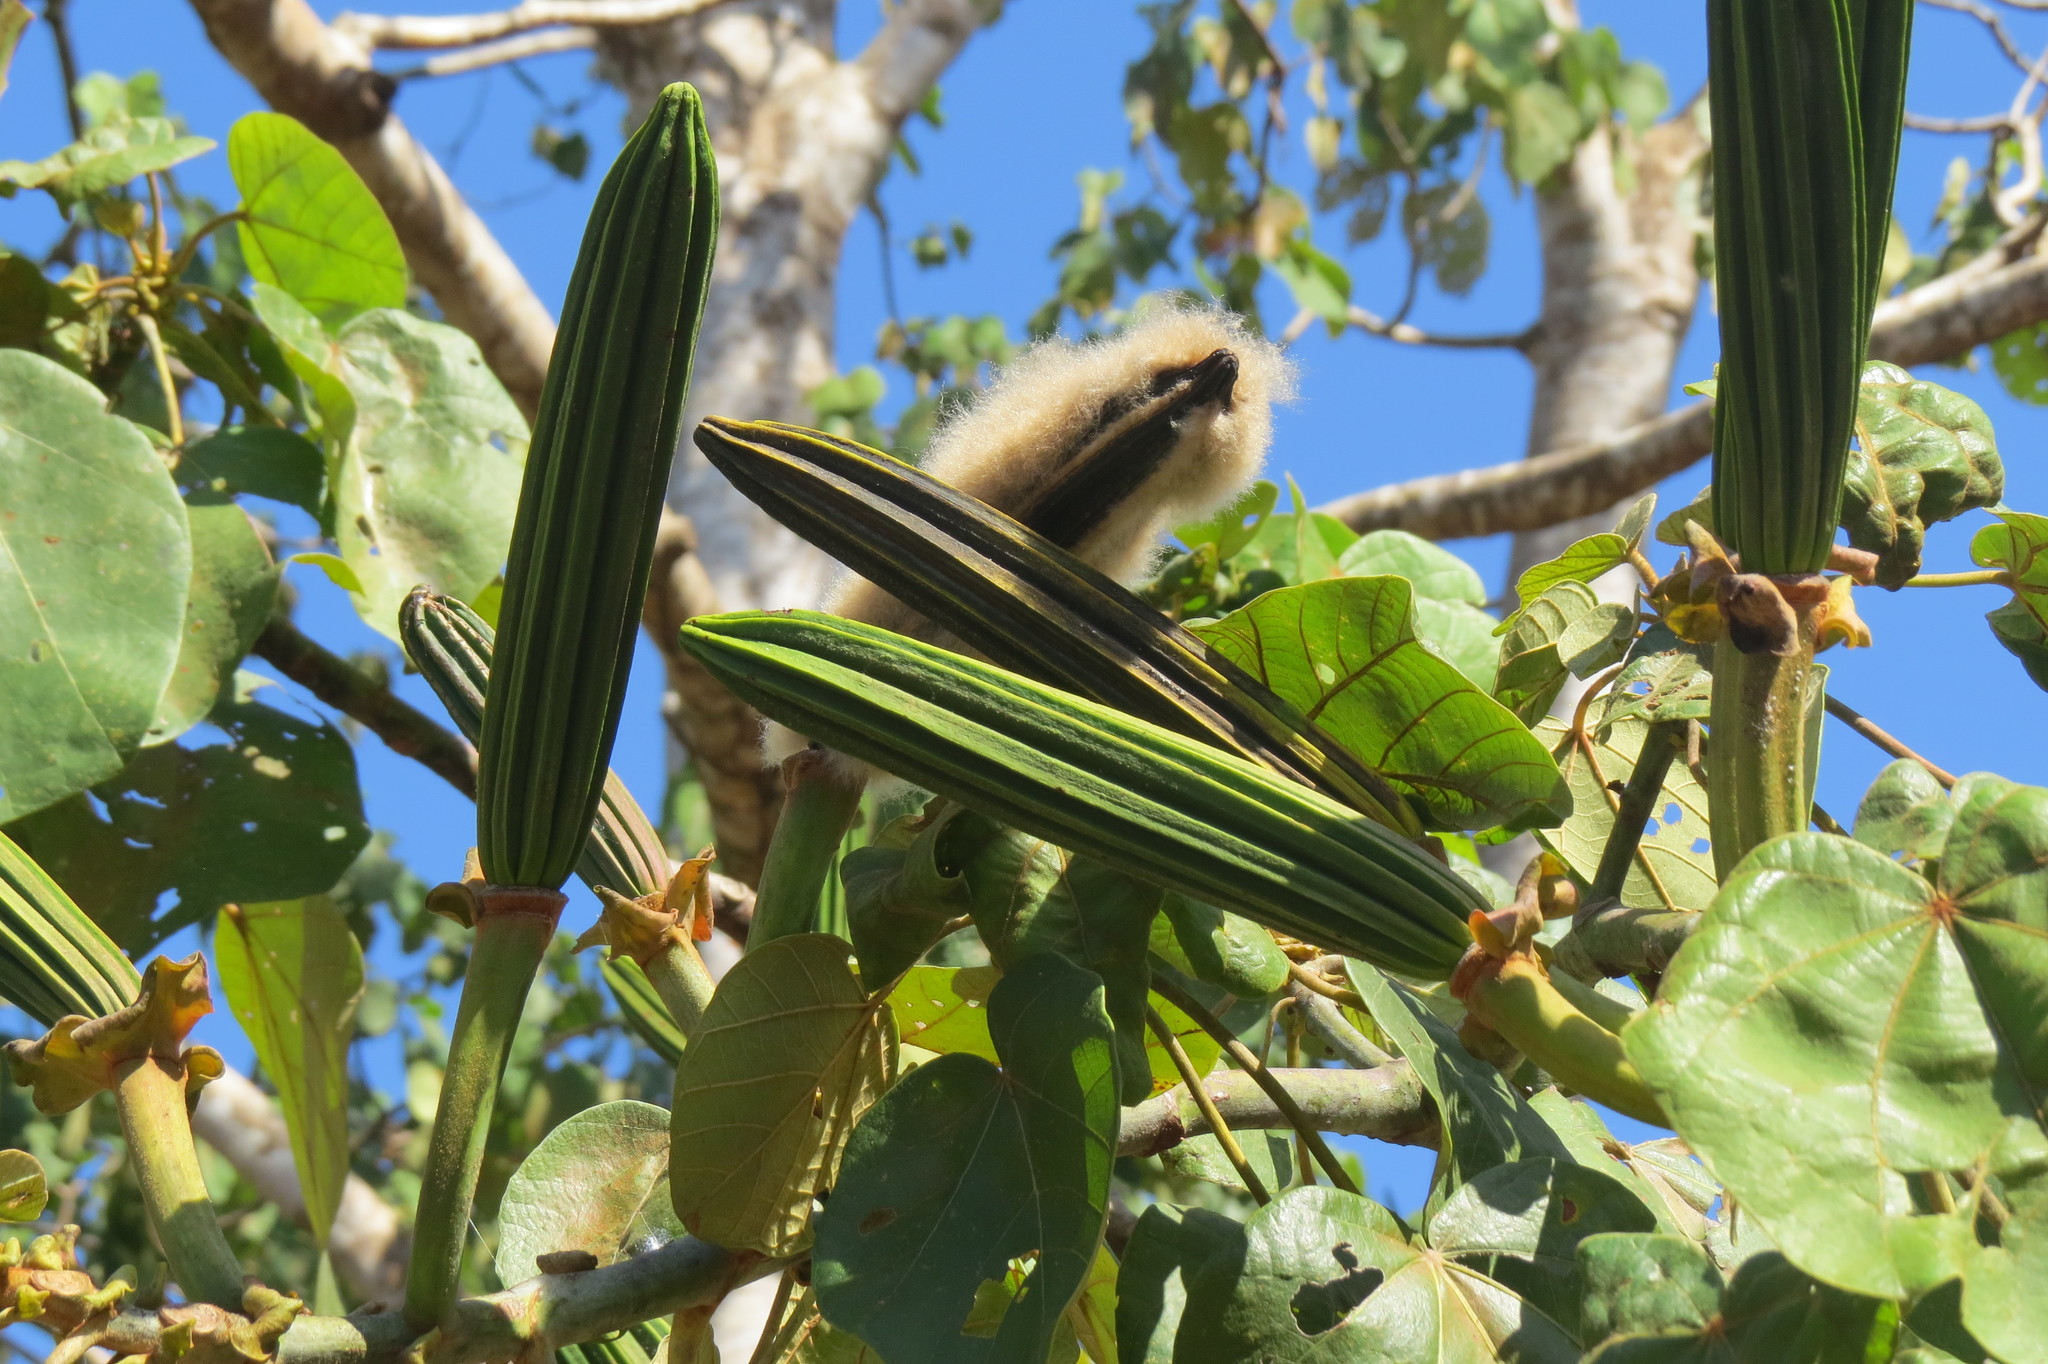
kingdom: Plantae
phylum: Tracheophyta
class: Magnoliopsida
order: Malvales
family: Malvaceae
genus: Ochroma
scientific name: Ochroma pyramidale
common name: Balsa
